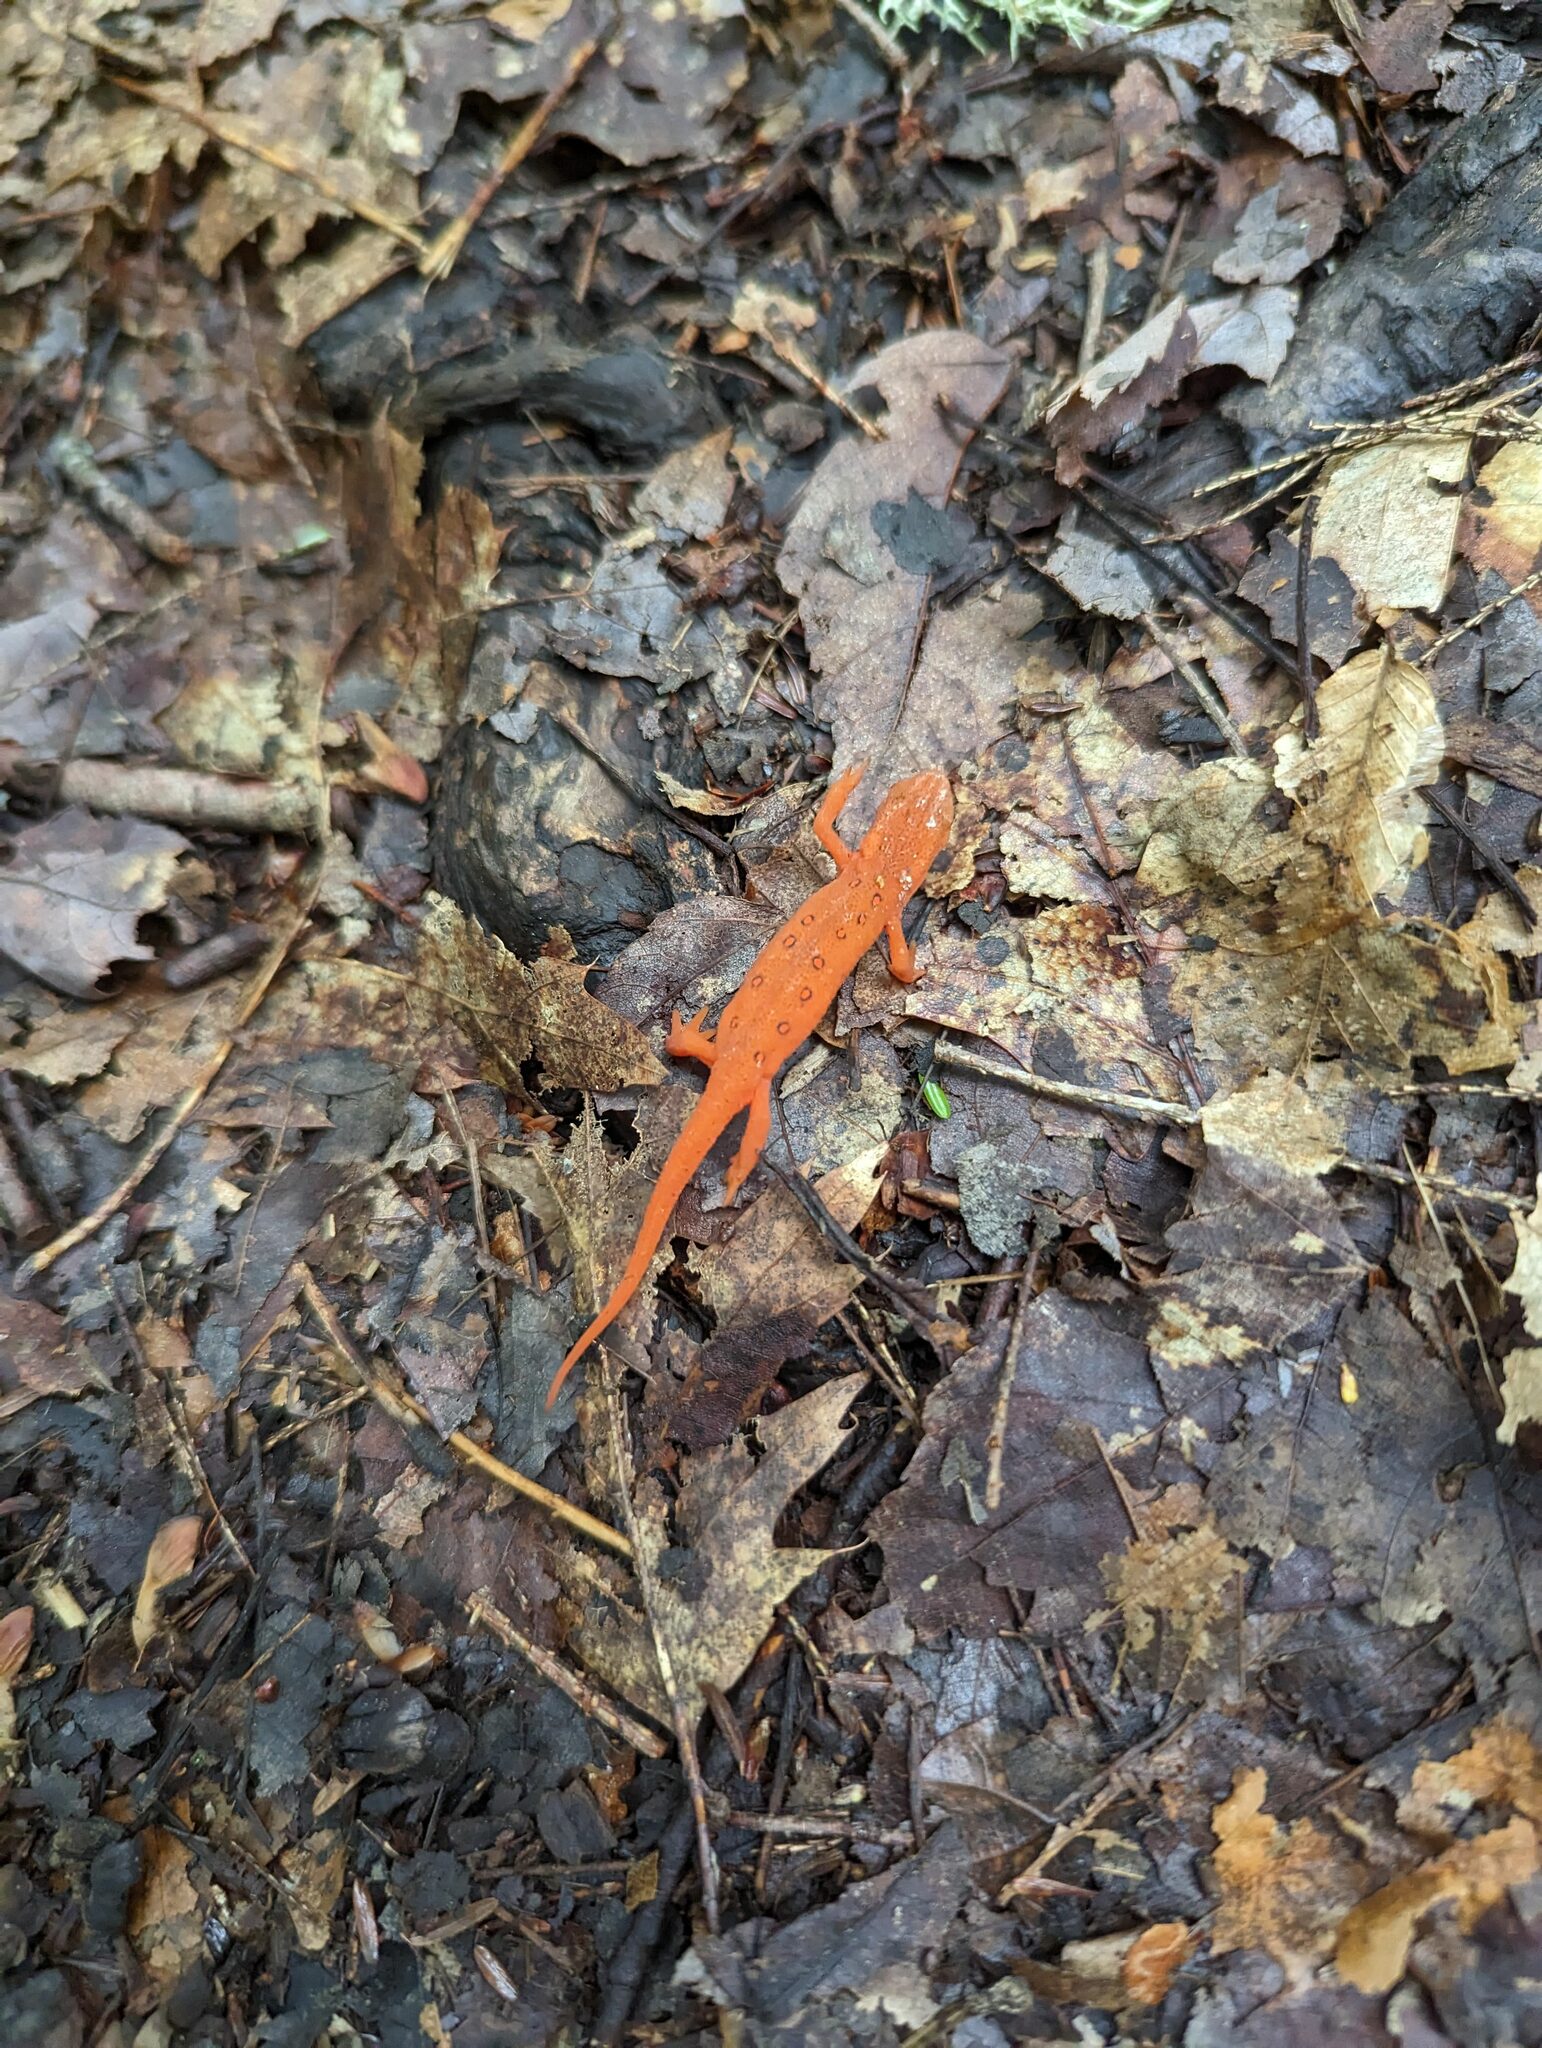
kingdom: Animalia
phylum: Chordata
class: Amphibia
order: Caudata
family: Salamandridae
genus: Notophthalmus
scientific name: Notophthalmus viridescens
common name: Eastern newt
